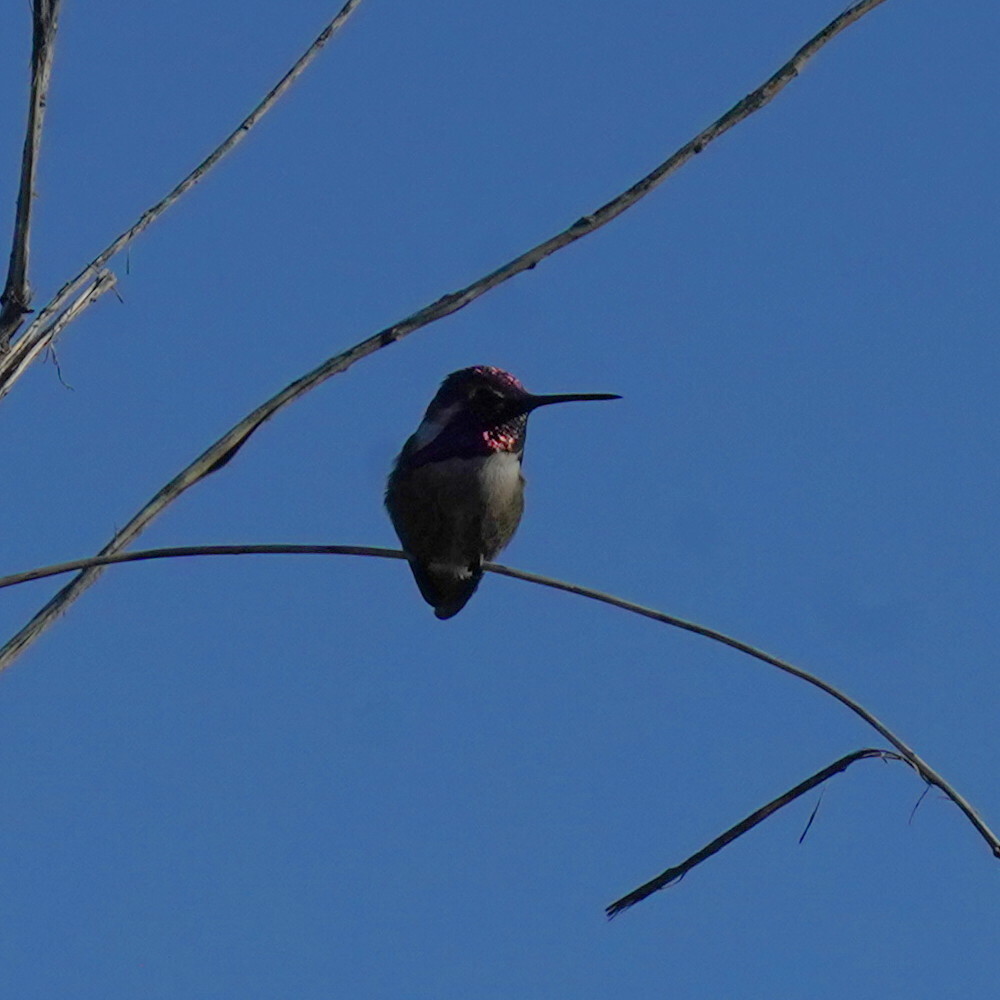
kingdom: Animalia
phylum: Chordata
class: Aves
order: Apodiformes
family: Trochilidae
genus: Calypte
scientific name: Calypte costae
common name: Costa's hummingbird
